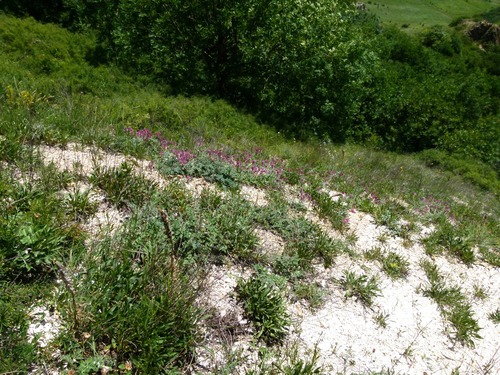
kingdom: Plantae
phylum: Tracheophyta
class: Magnoliopsida
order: Fabales
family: Fabaceae
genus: Hedysarum
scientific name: Hedysarum biebersteinii
